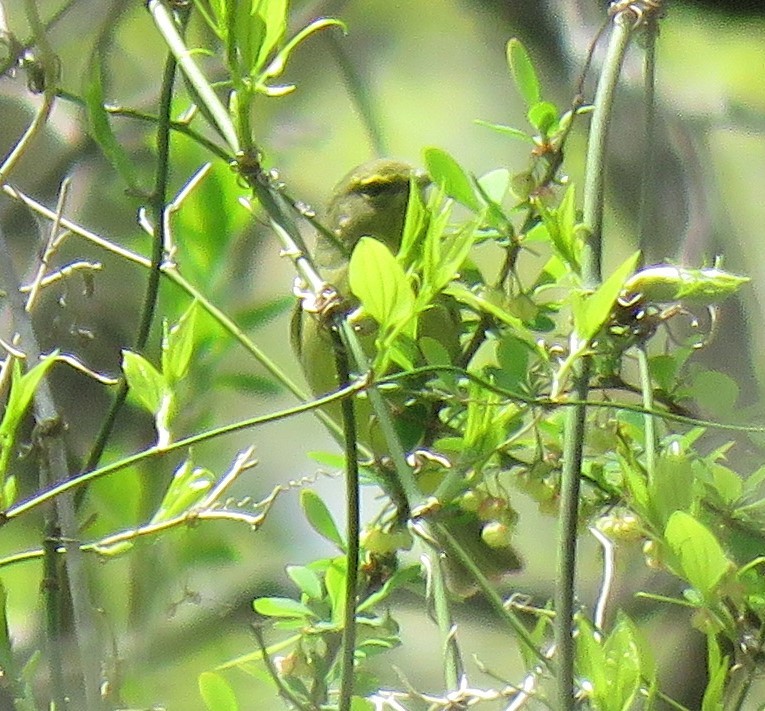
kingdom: Animalia
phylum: Chordata
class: Aves
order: Passeriformes
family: Parulidae
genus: Leiothlypis
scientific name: Leiothlypis celata
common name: Orange-crowned warbler
